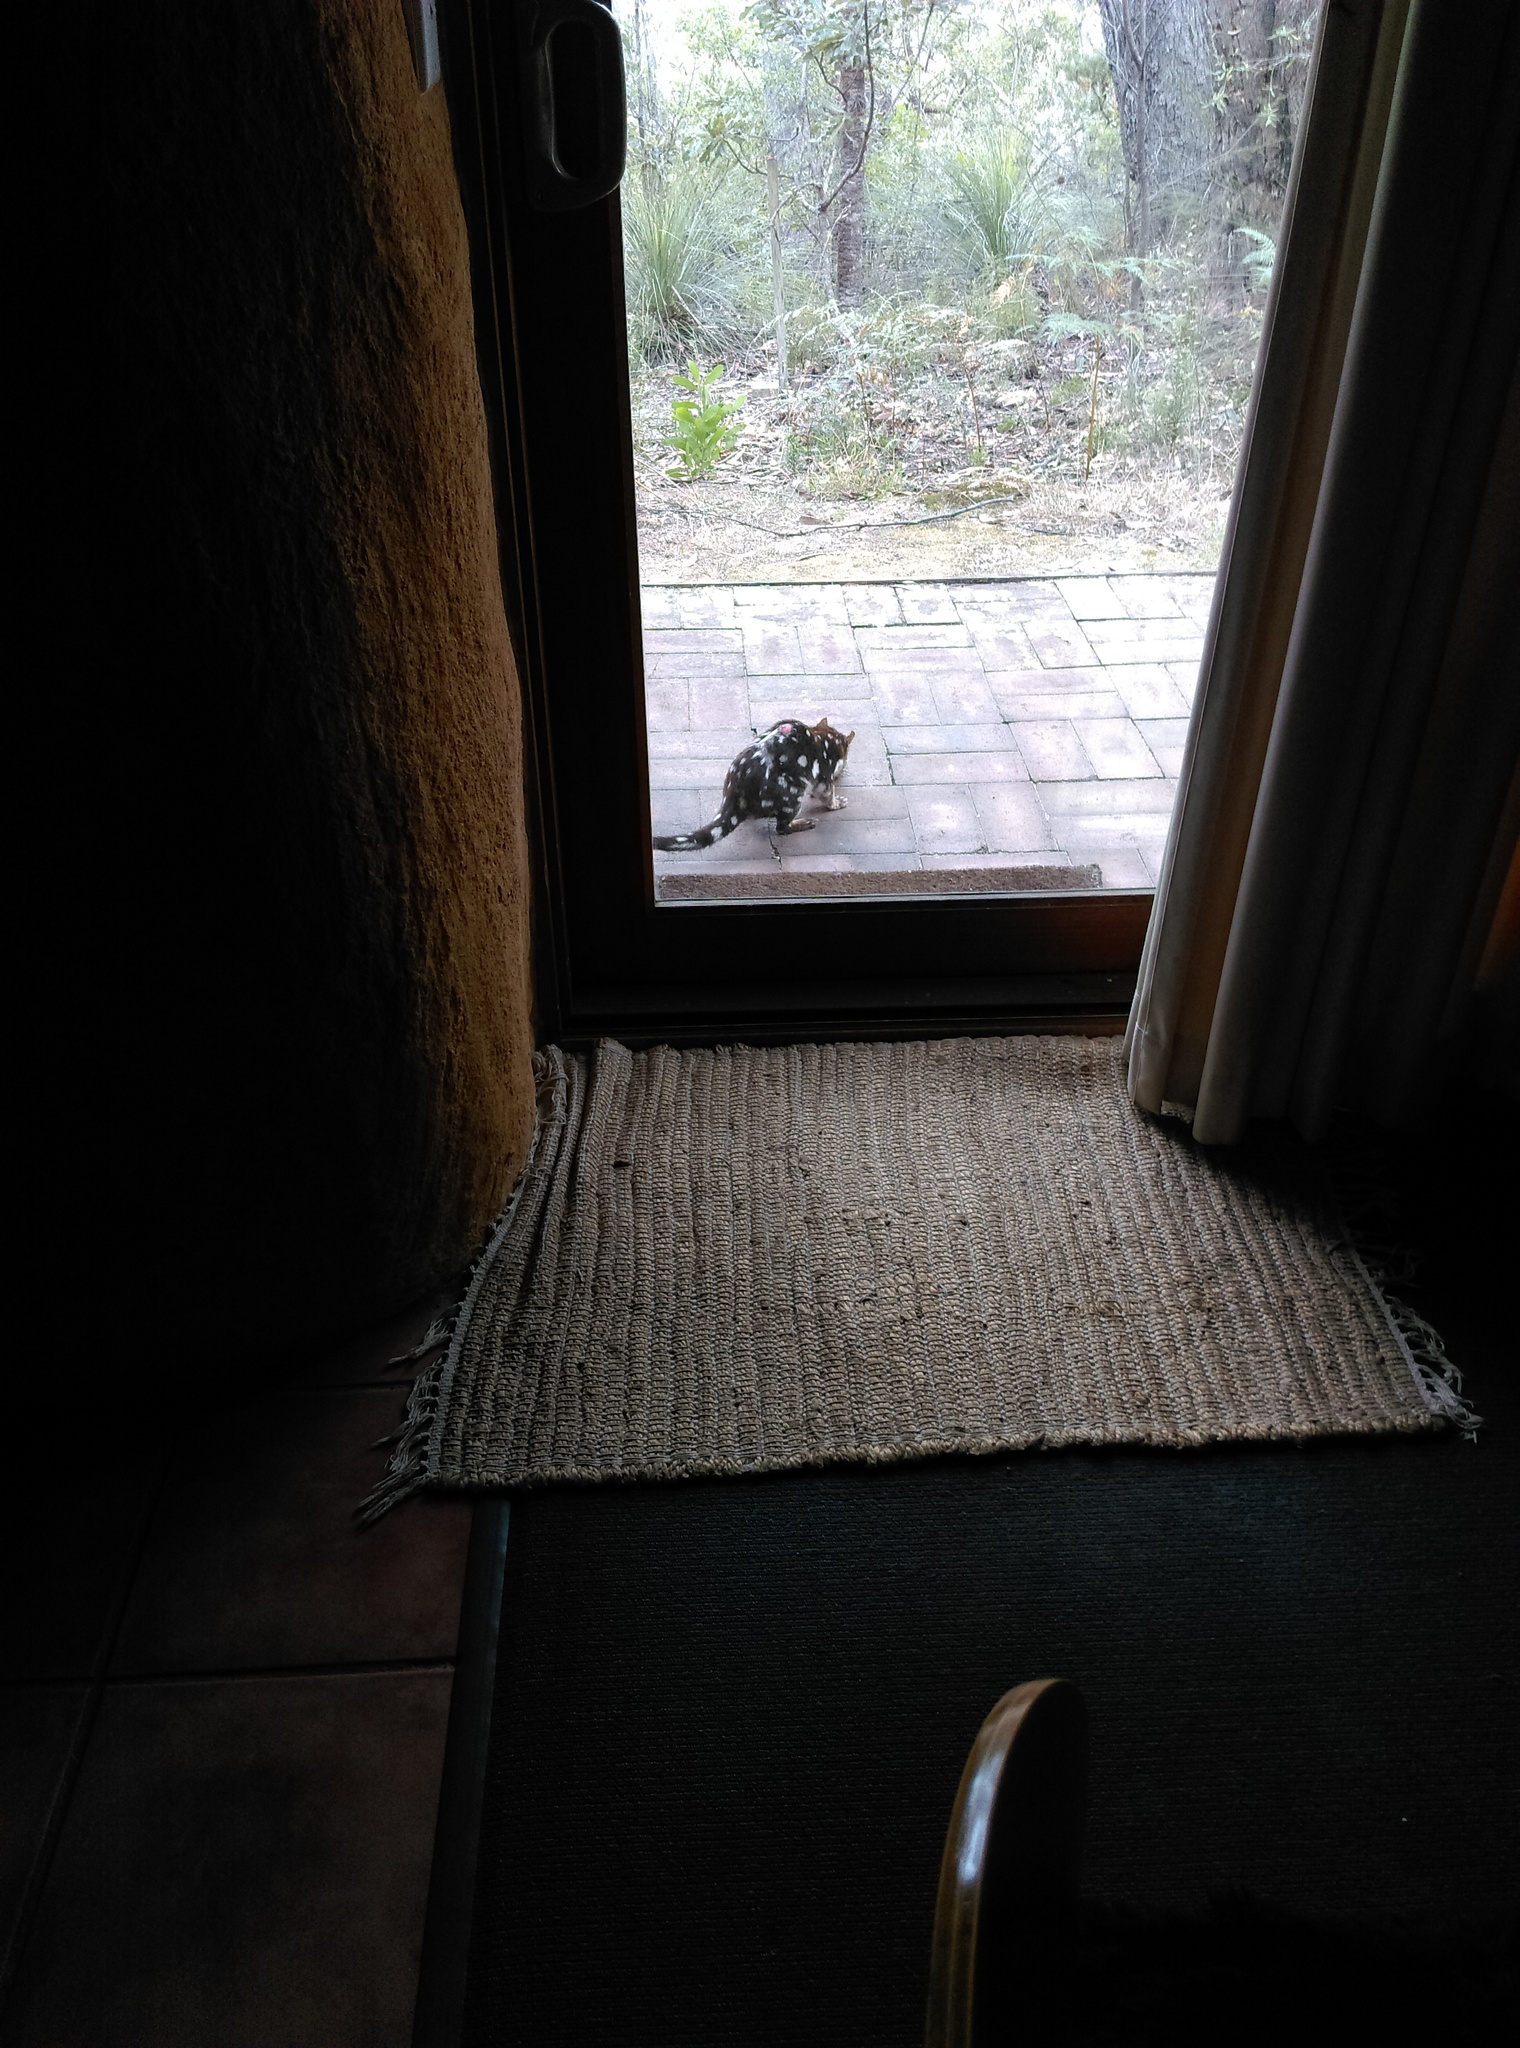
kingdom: Animalia
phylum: Chordata
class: Mammalia
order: Dasyuromorphia
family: Dasyuridae
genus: Dasyurus
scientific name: Dasyurus maculatus
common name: Tiger quoll
